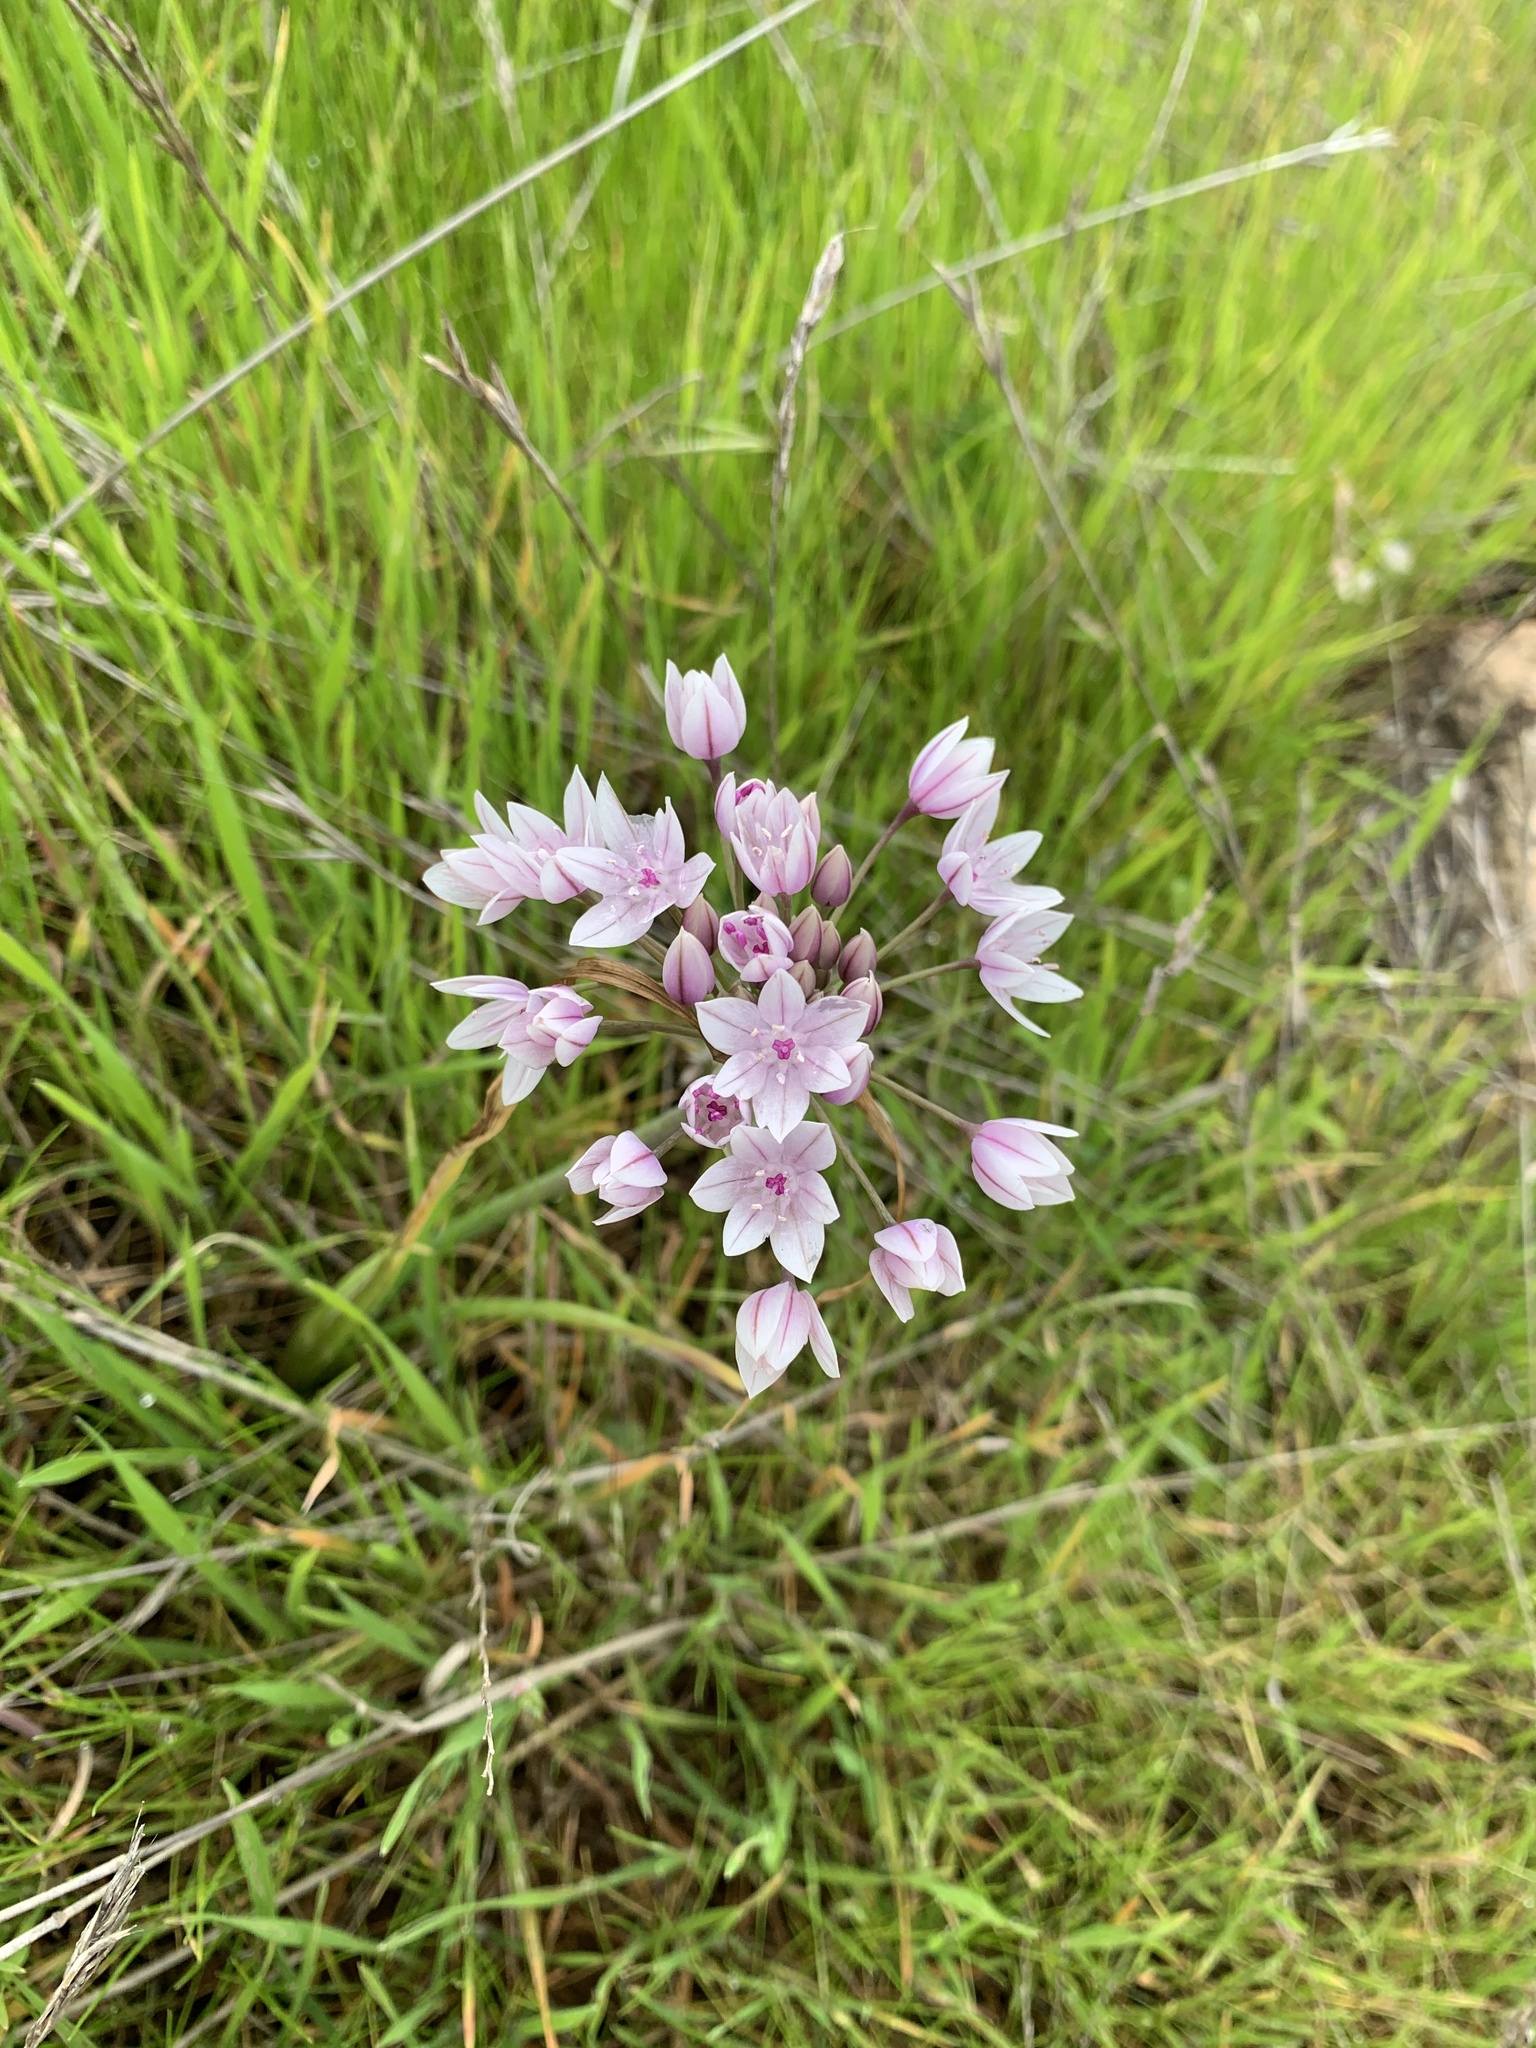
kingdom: Plantae
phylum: Tracheophyta
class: Liliopsida
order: Asparagales
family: Amaryllidaceae
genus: Allium
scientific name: Allium praecox
